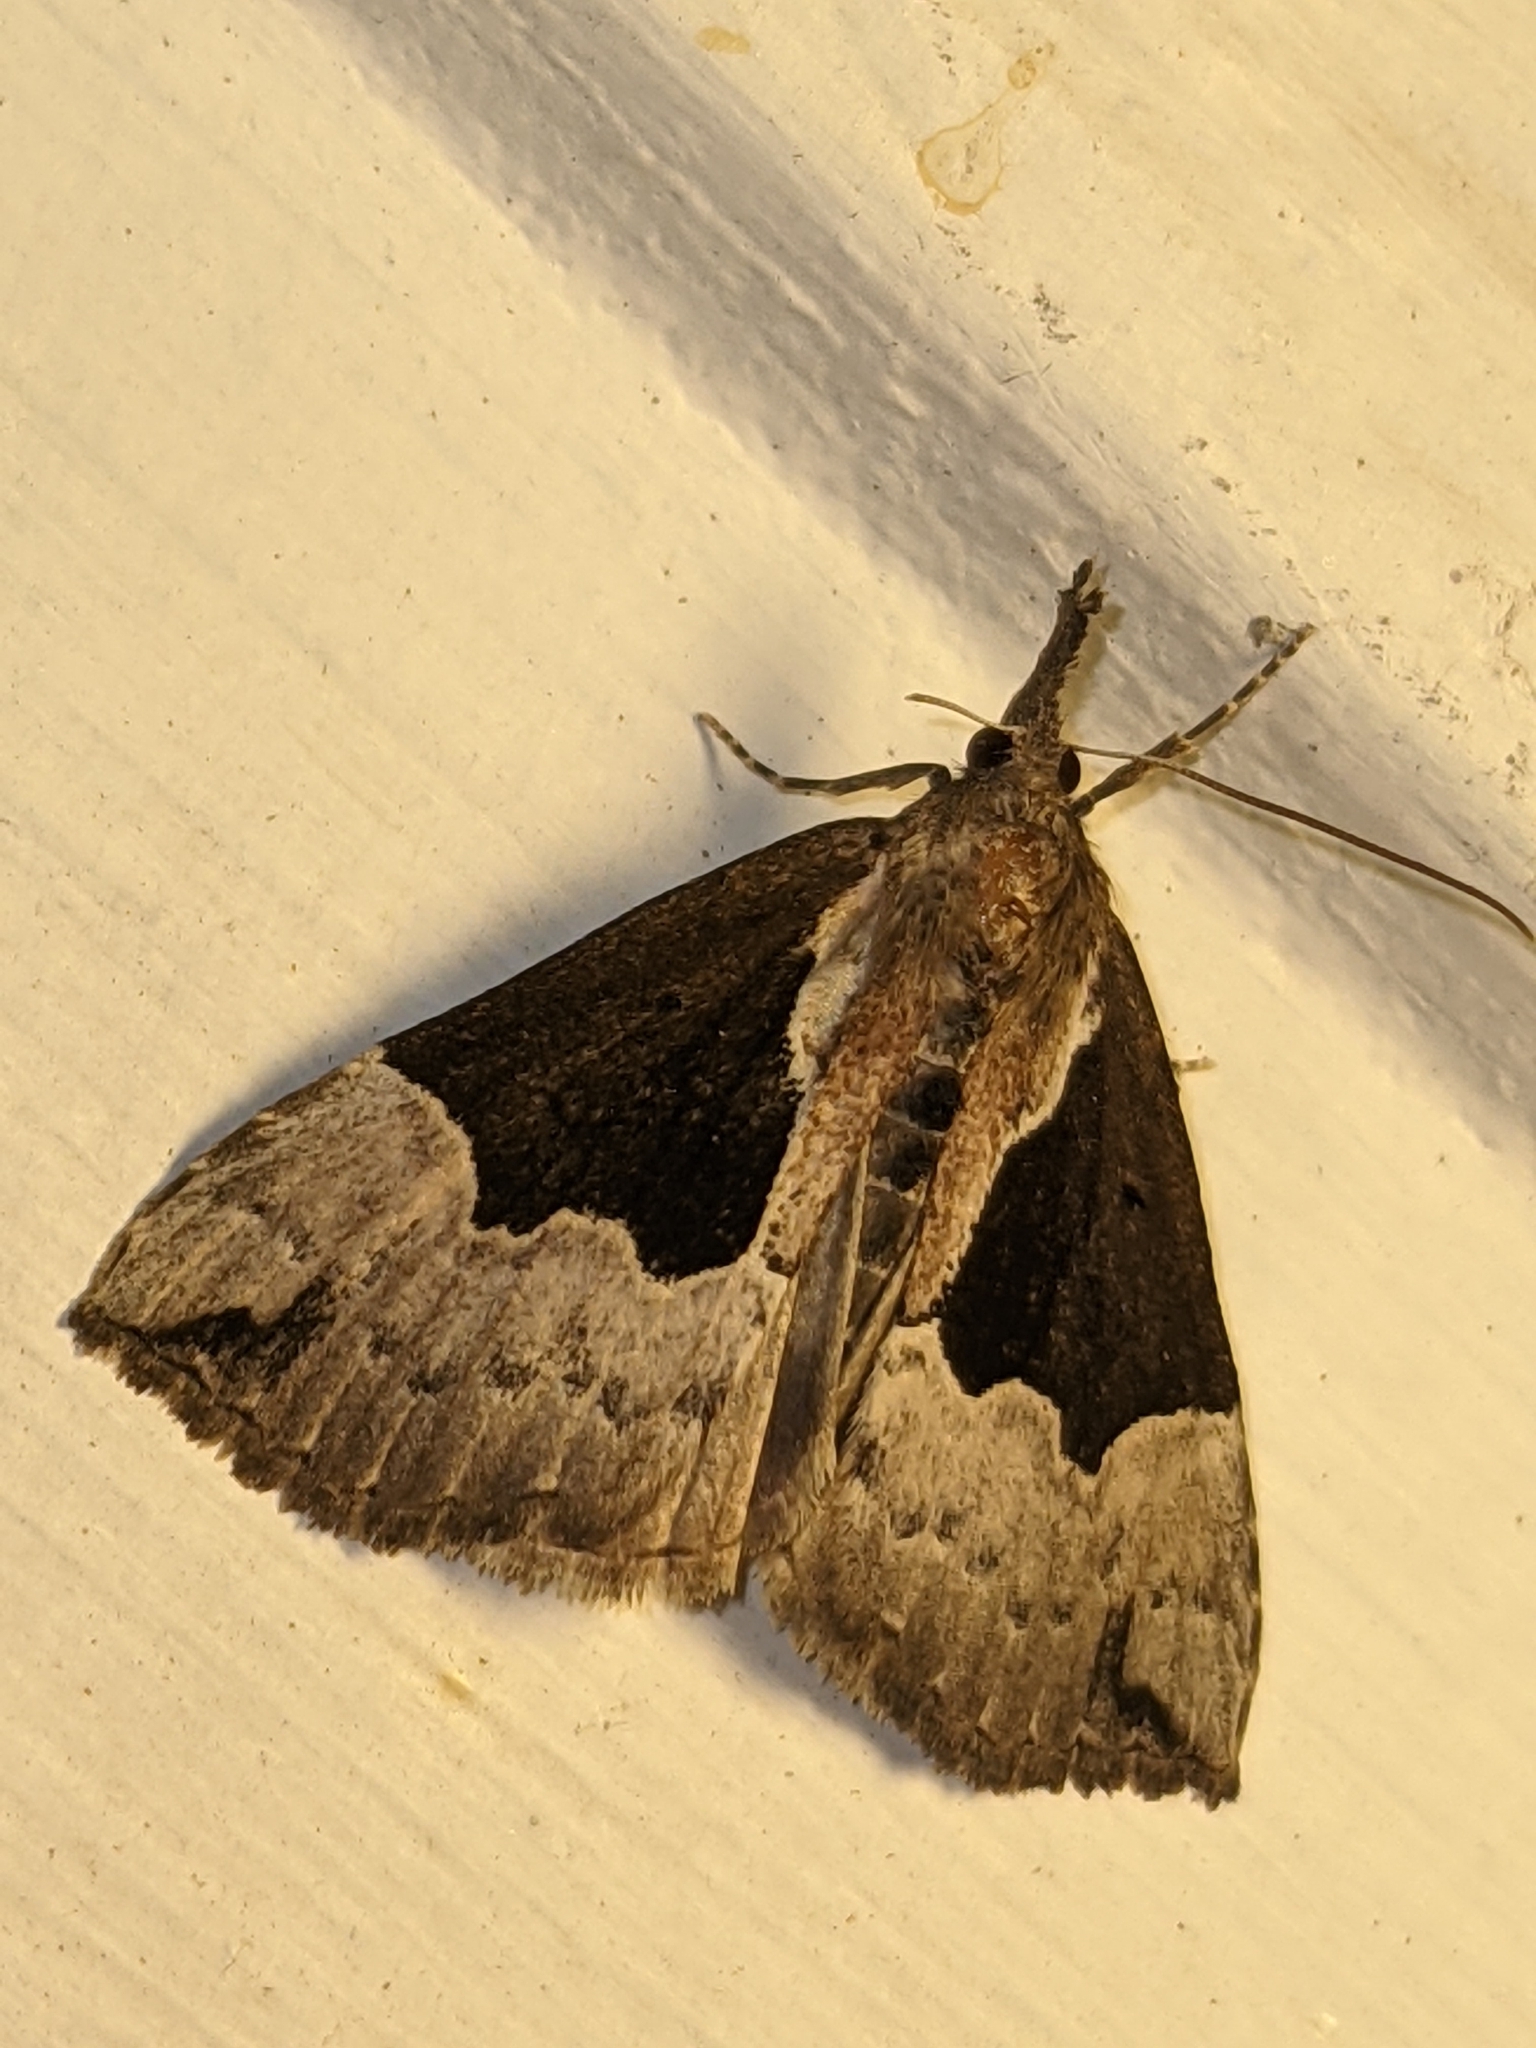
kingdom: Animalia
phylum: Arthropoda
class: Insecta
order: Lepidoptera
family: Erebidae
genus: Hypena
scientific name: Hypena bijugalis
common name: Dimorphic bomolocha moth
